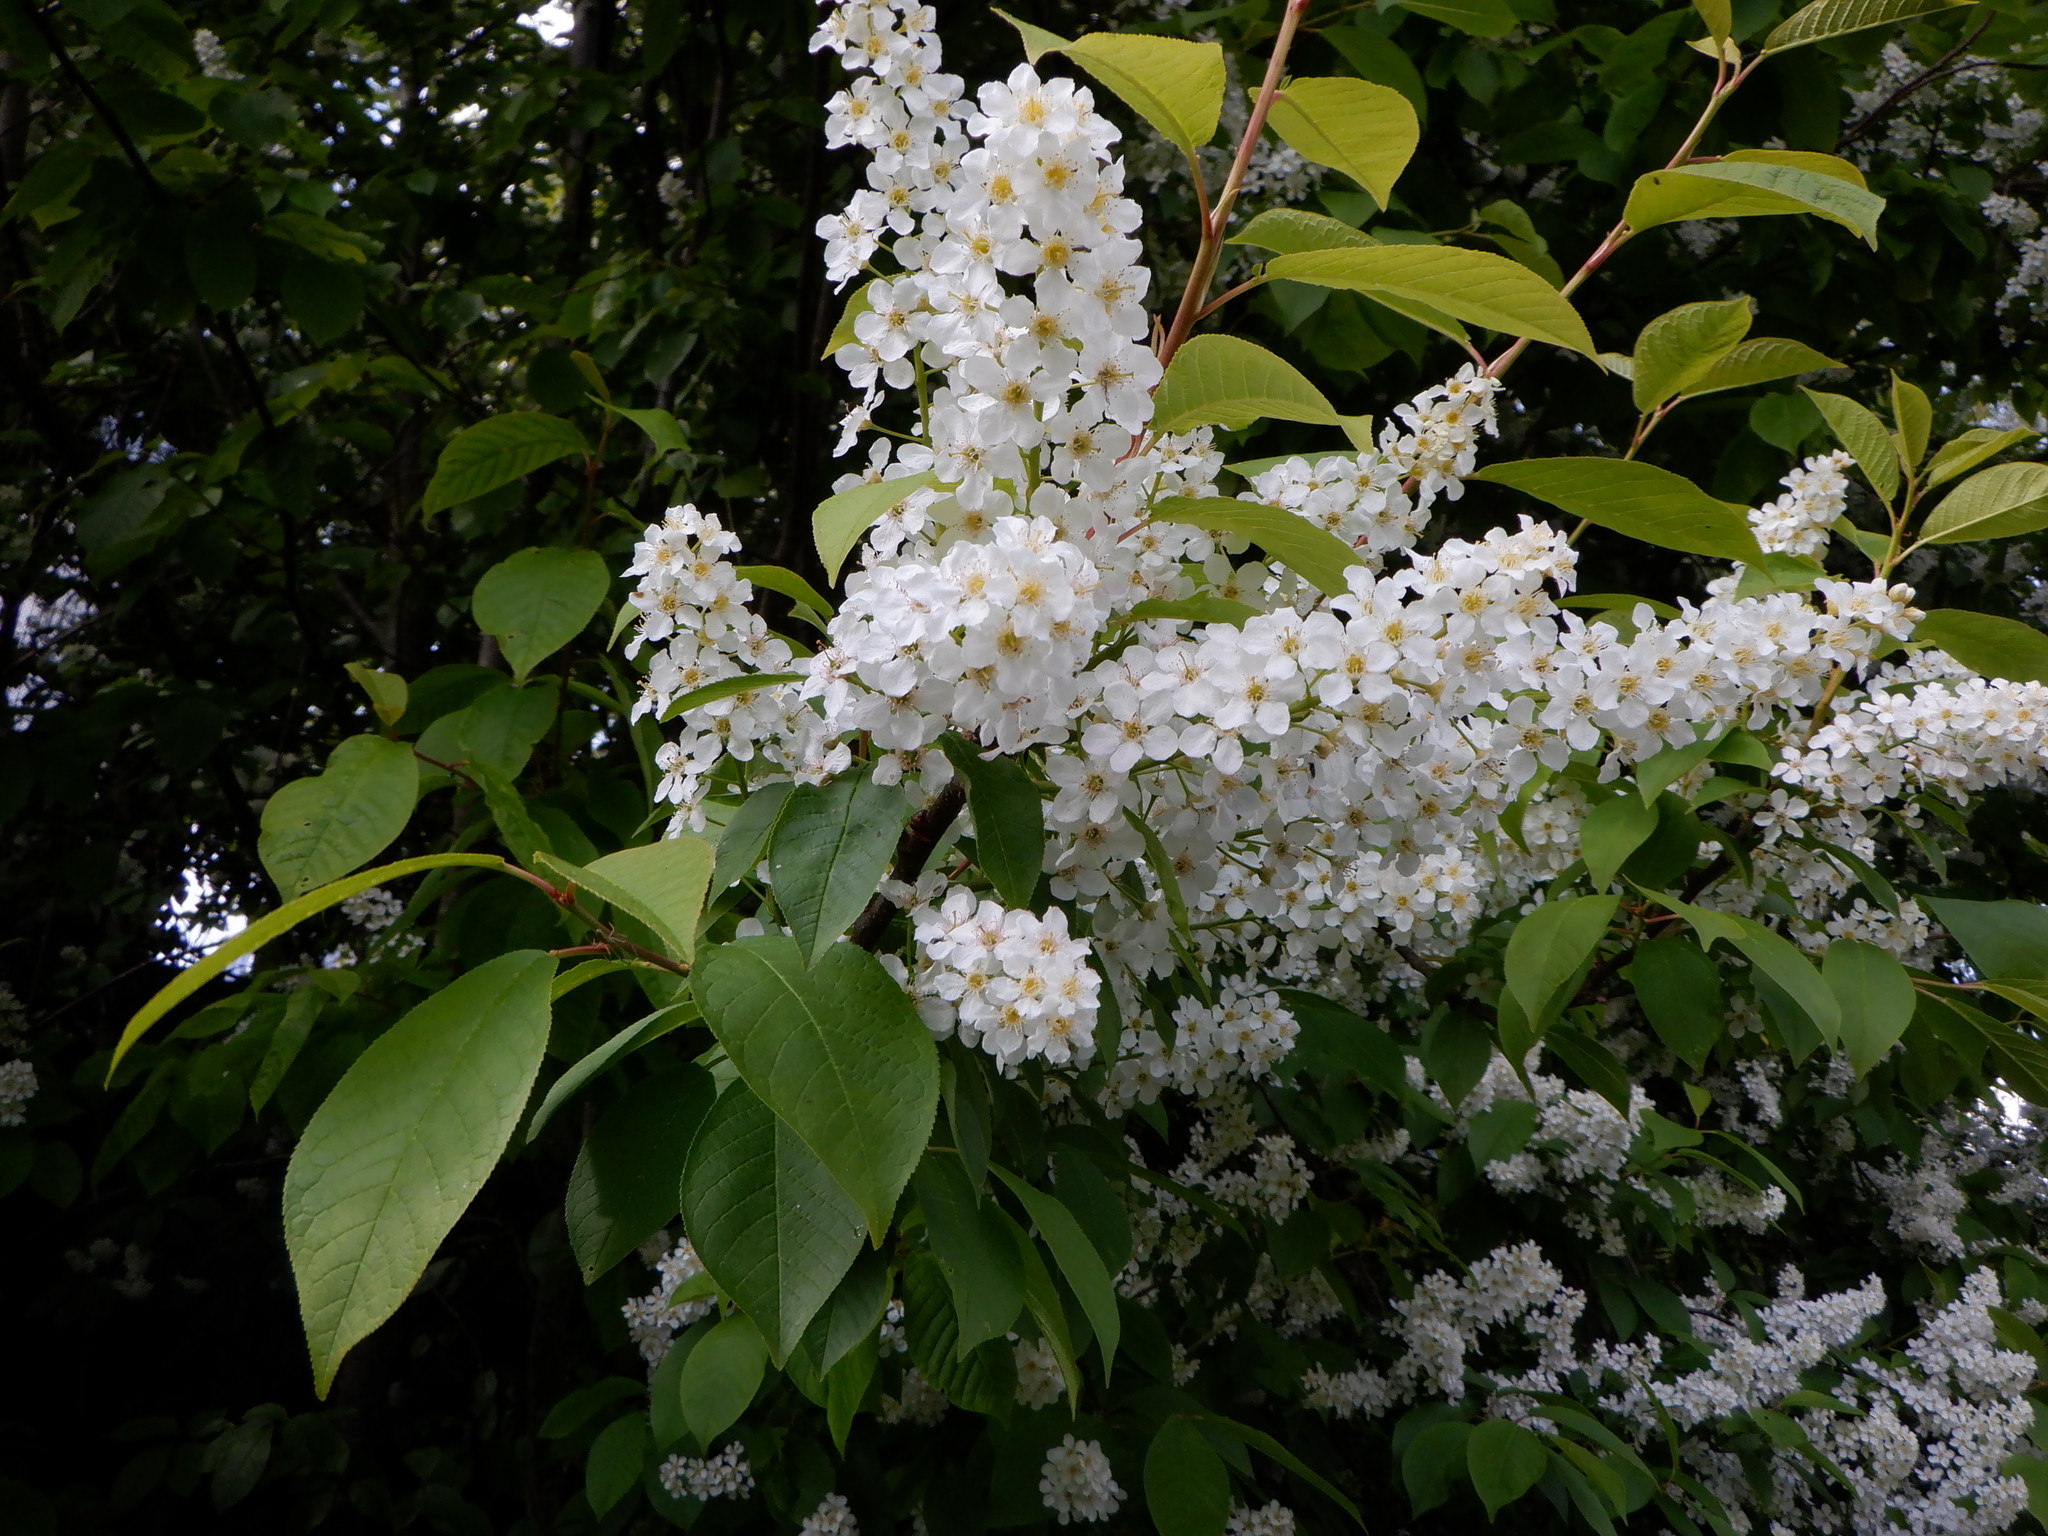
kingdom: Plantae
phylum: Tracheophyta
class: Magnoliopsida
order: Rosales
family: Rosaceae
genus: Prunus
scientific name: Prunus padus
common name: Bird cherry
